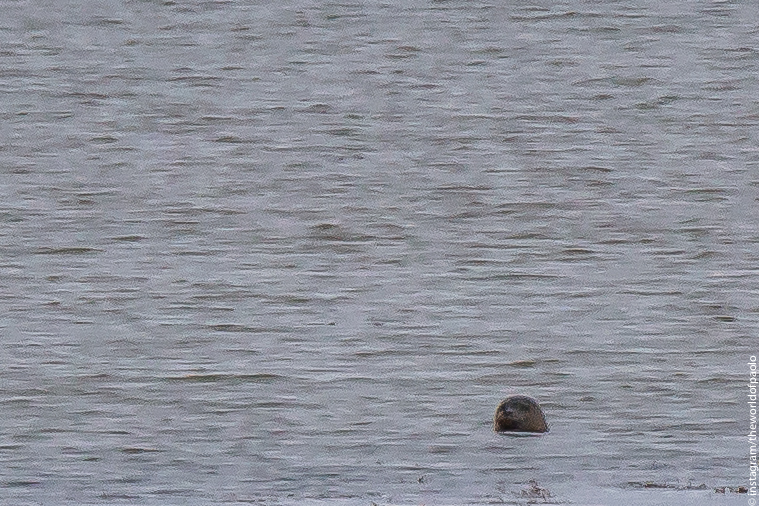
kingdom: Animalia
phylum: Chordata
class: Mammalia
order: Carnivora
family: Phocidae
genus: Phoca
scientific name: Phoca vitulina
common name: Harbor seal
